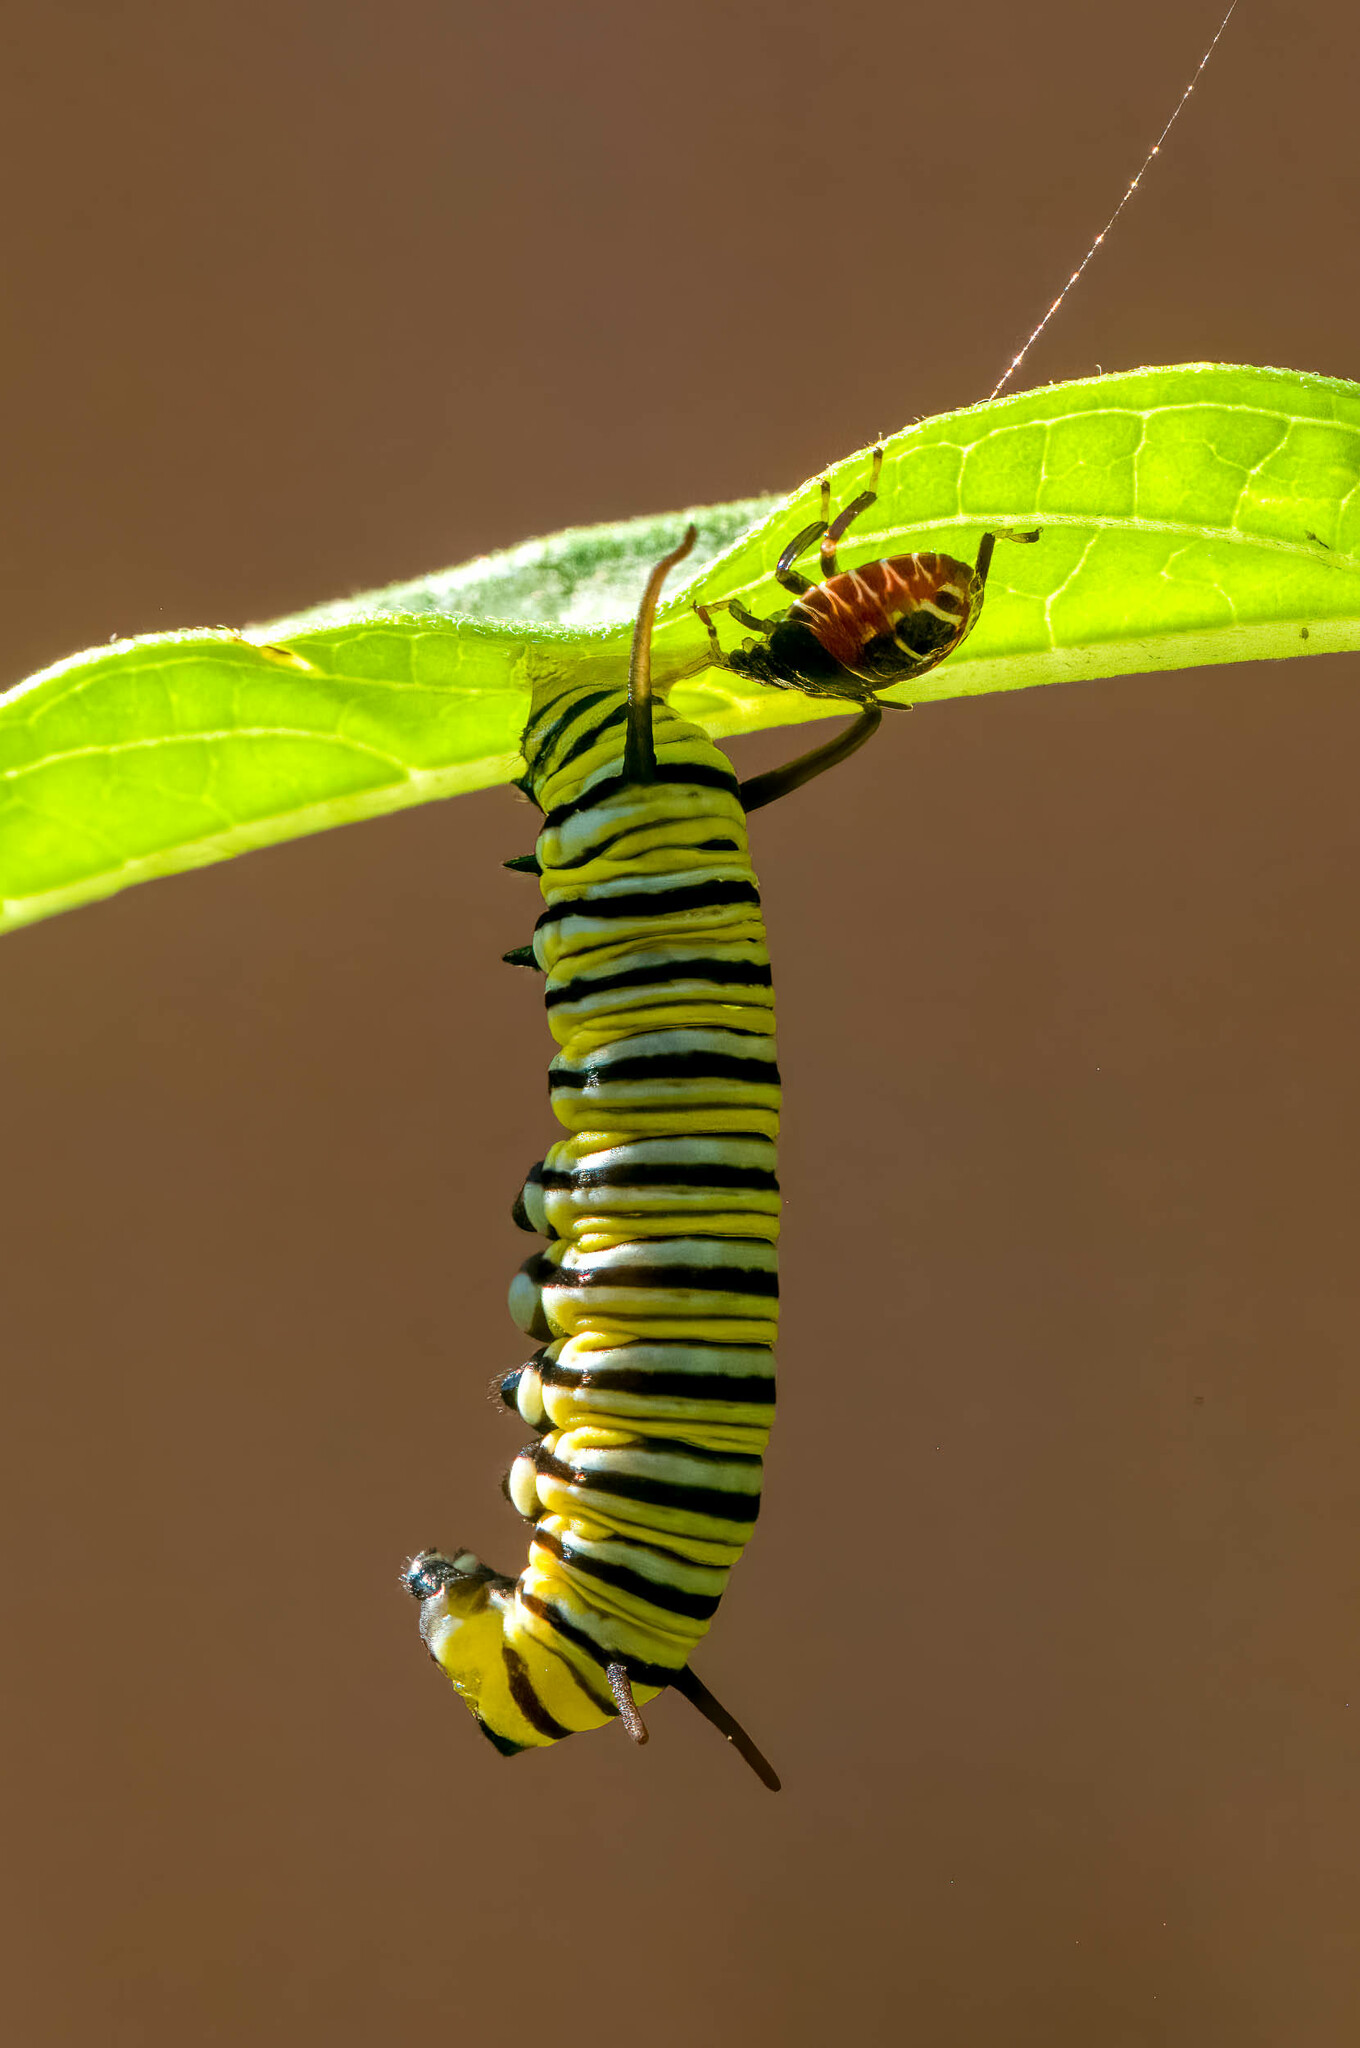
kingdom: Animalia
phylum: Arthropoda
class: Insecta
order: Lepidoptera
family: Nymphalidae
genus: Danaus
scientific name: Danaus plexippus
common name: Monarch
